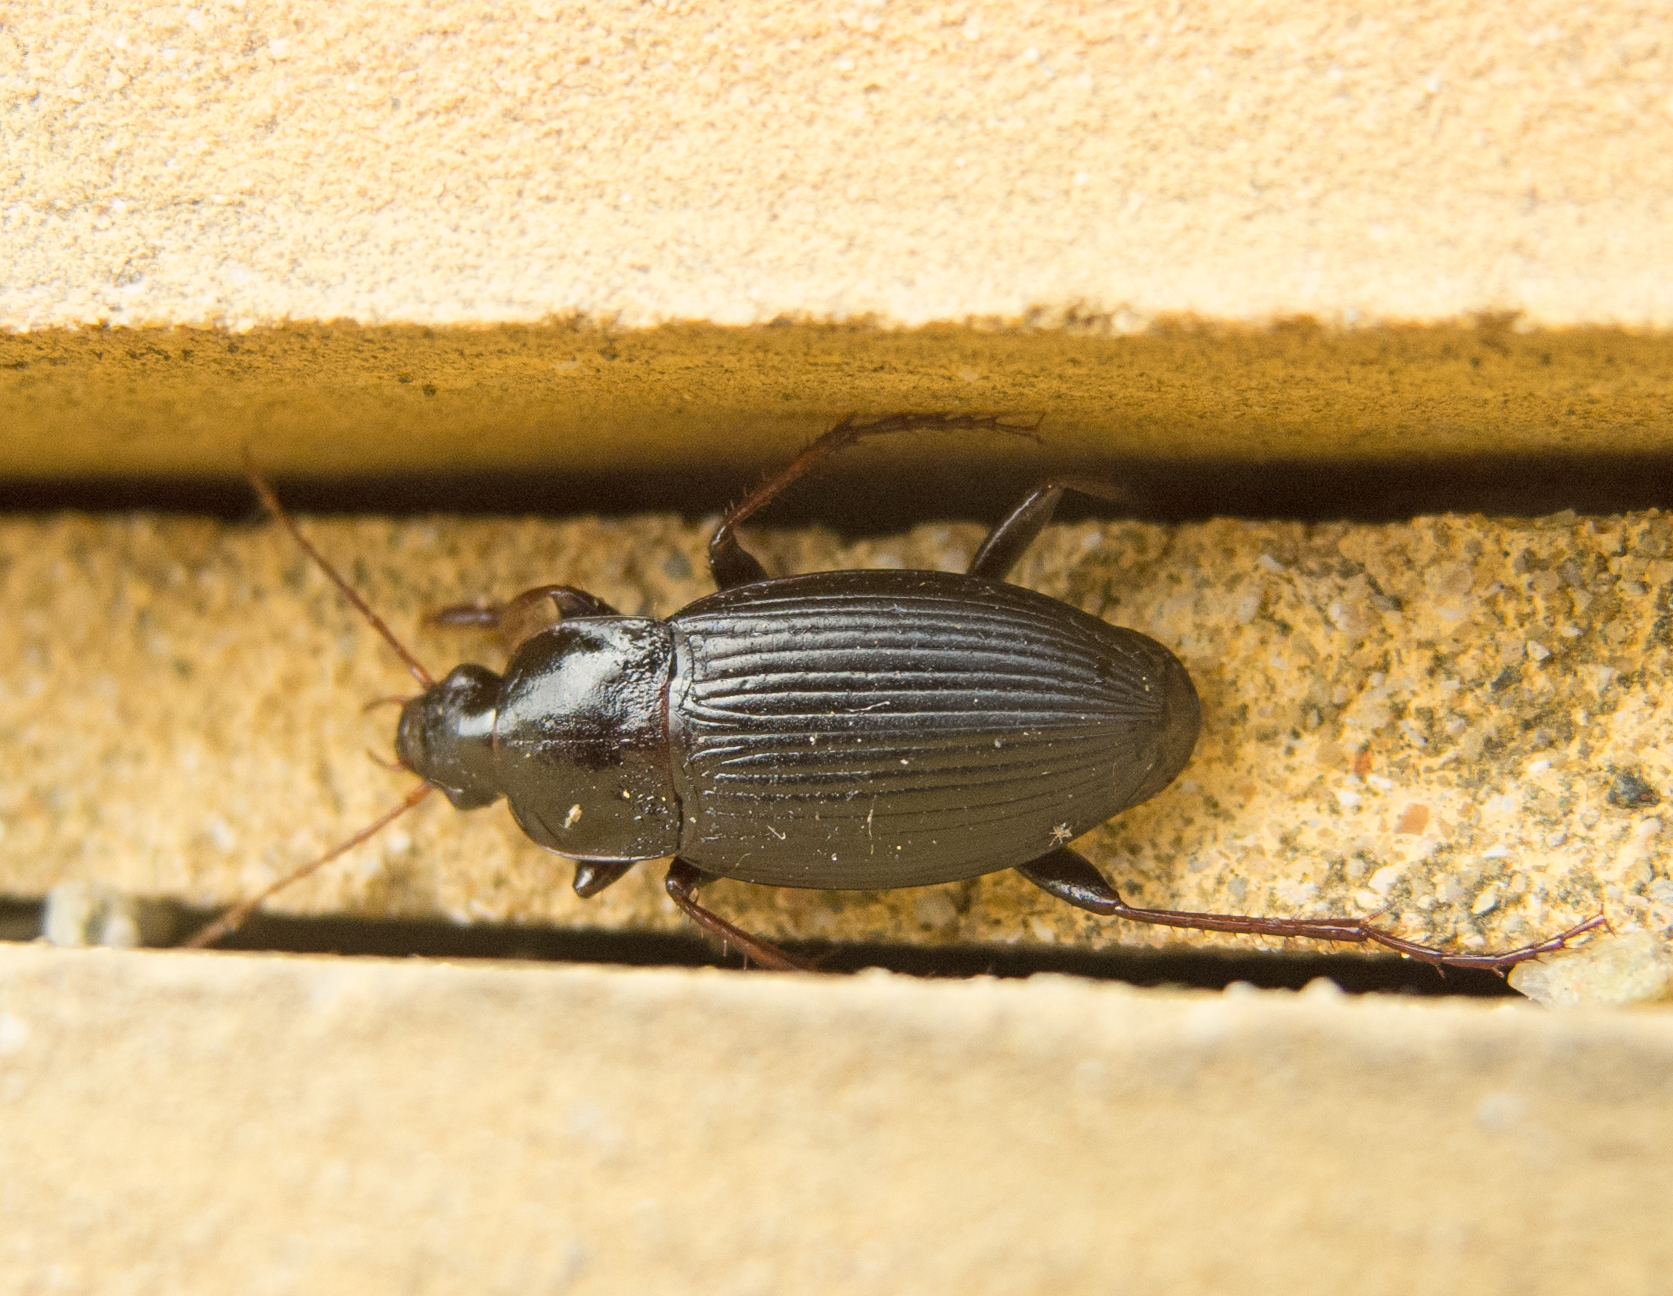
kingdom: Animalia
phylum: Arthropoda
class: Insecta
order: Coleoptera
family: Carabidae
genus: Calathus
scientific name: Calathus fuscipes
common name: Dark-footed harp ground beetle
